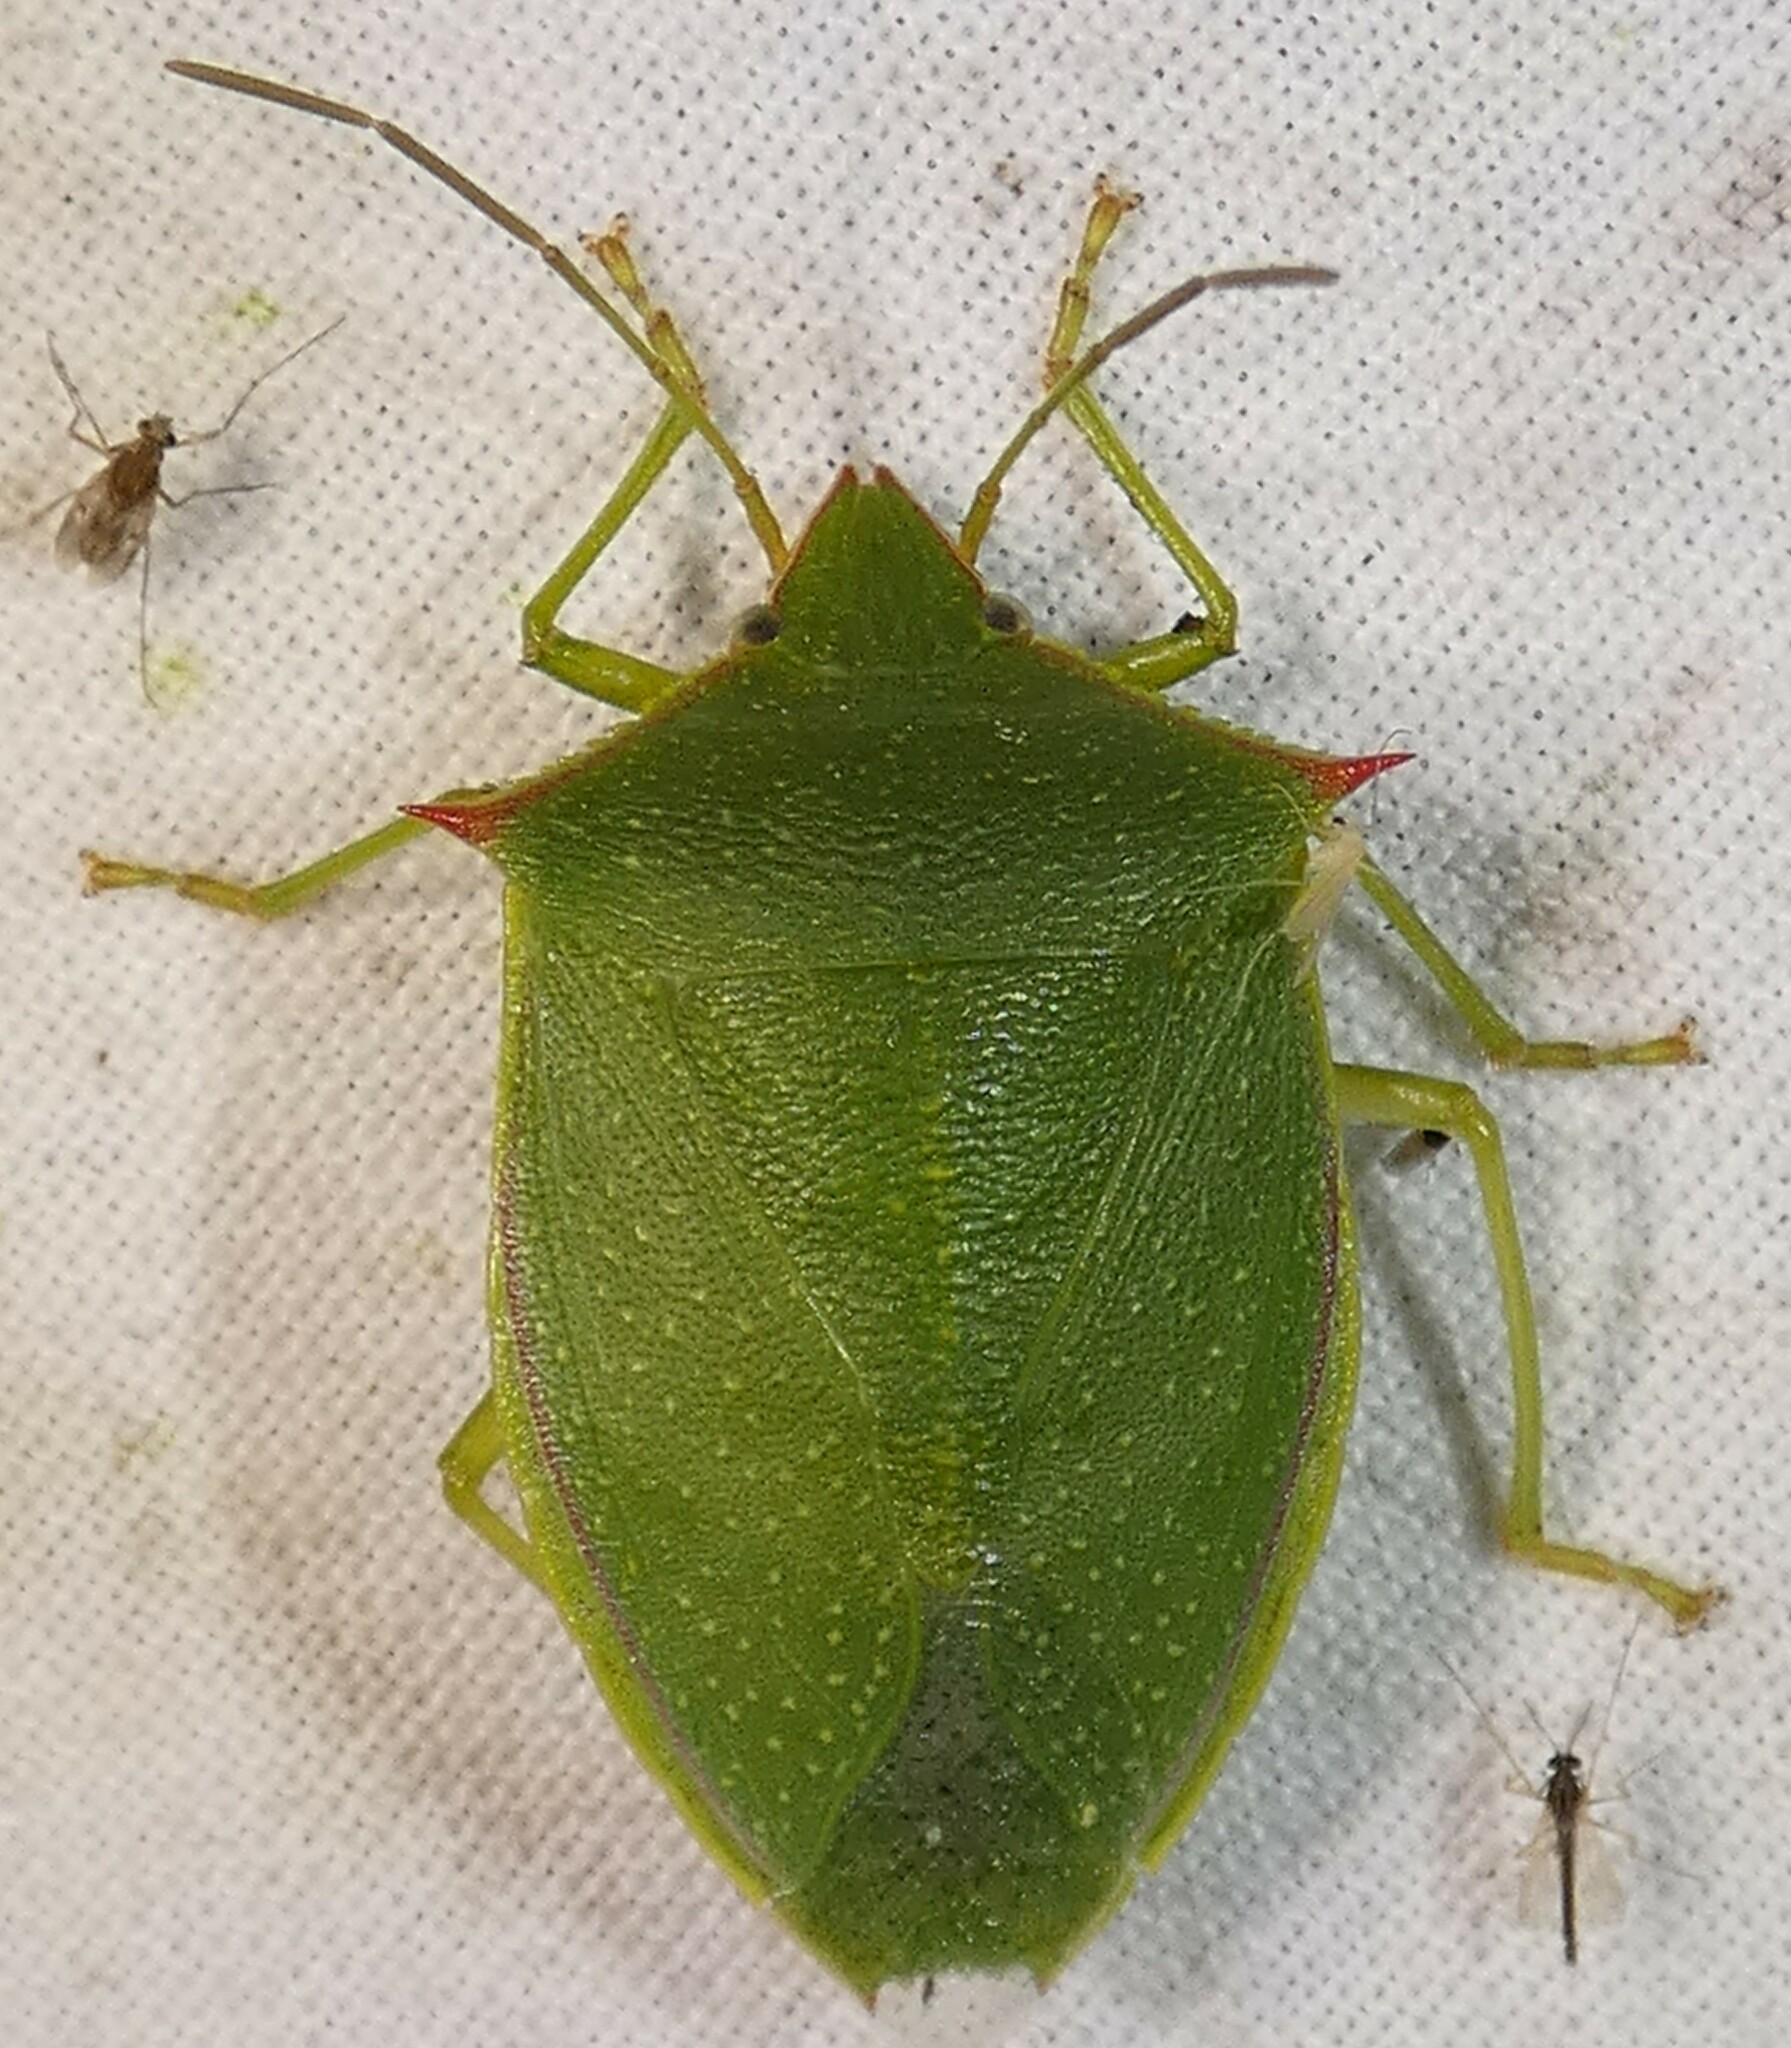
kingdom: Animalia
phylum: Arthropoda
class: Insecta
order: Hemiptera
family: Pentatomidae
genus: Loxa
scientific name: Loxa flavicollis
